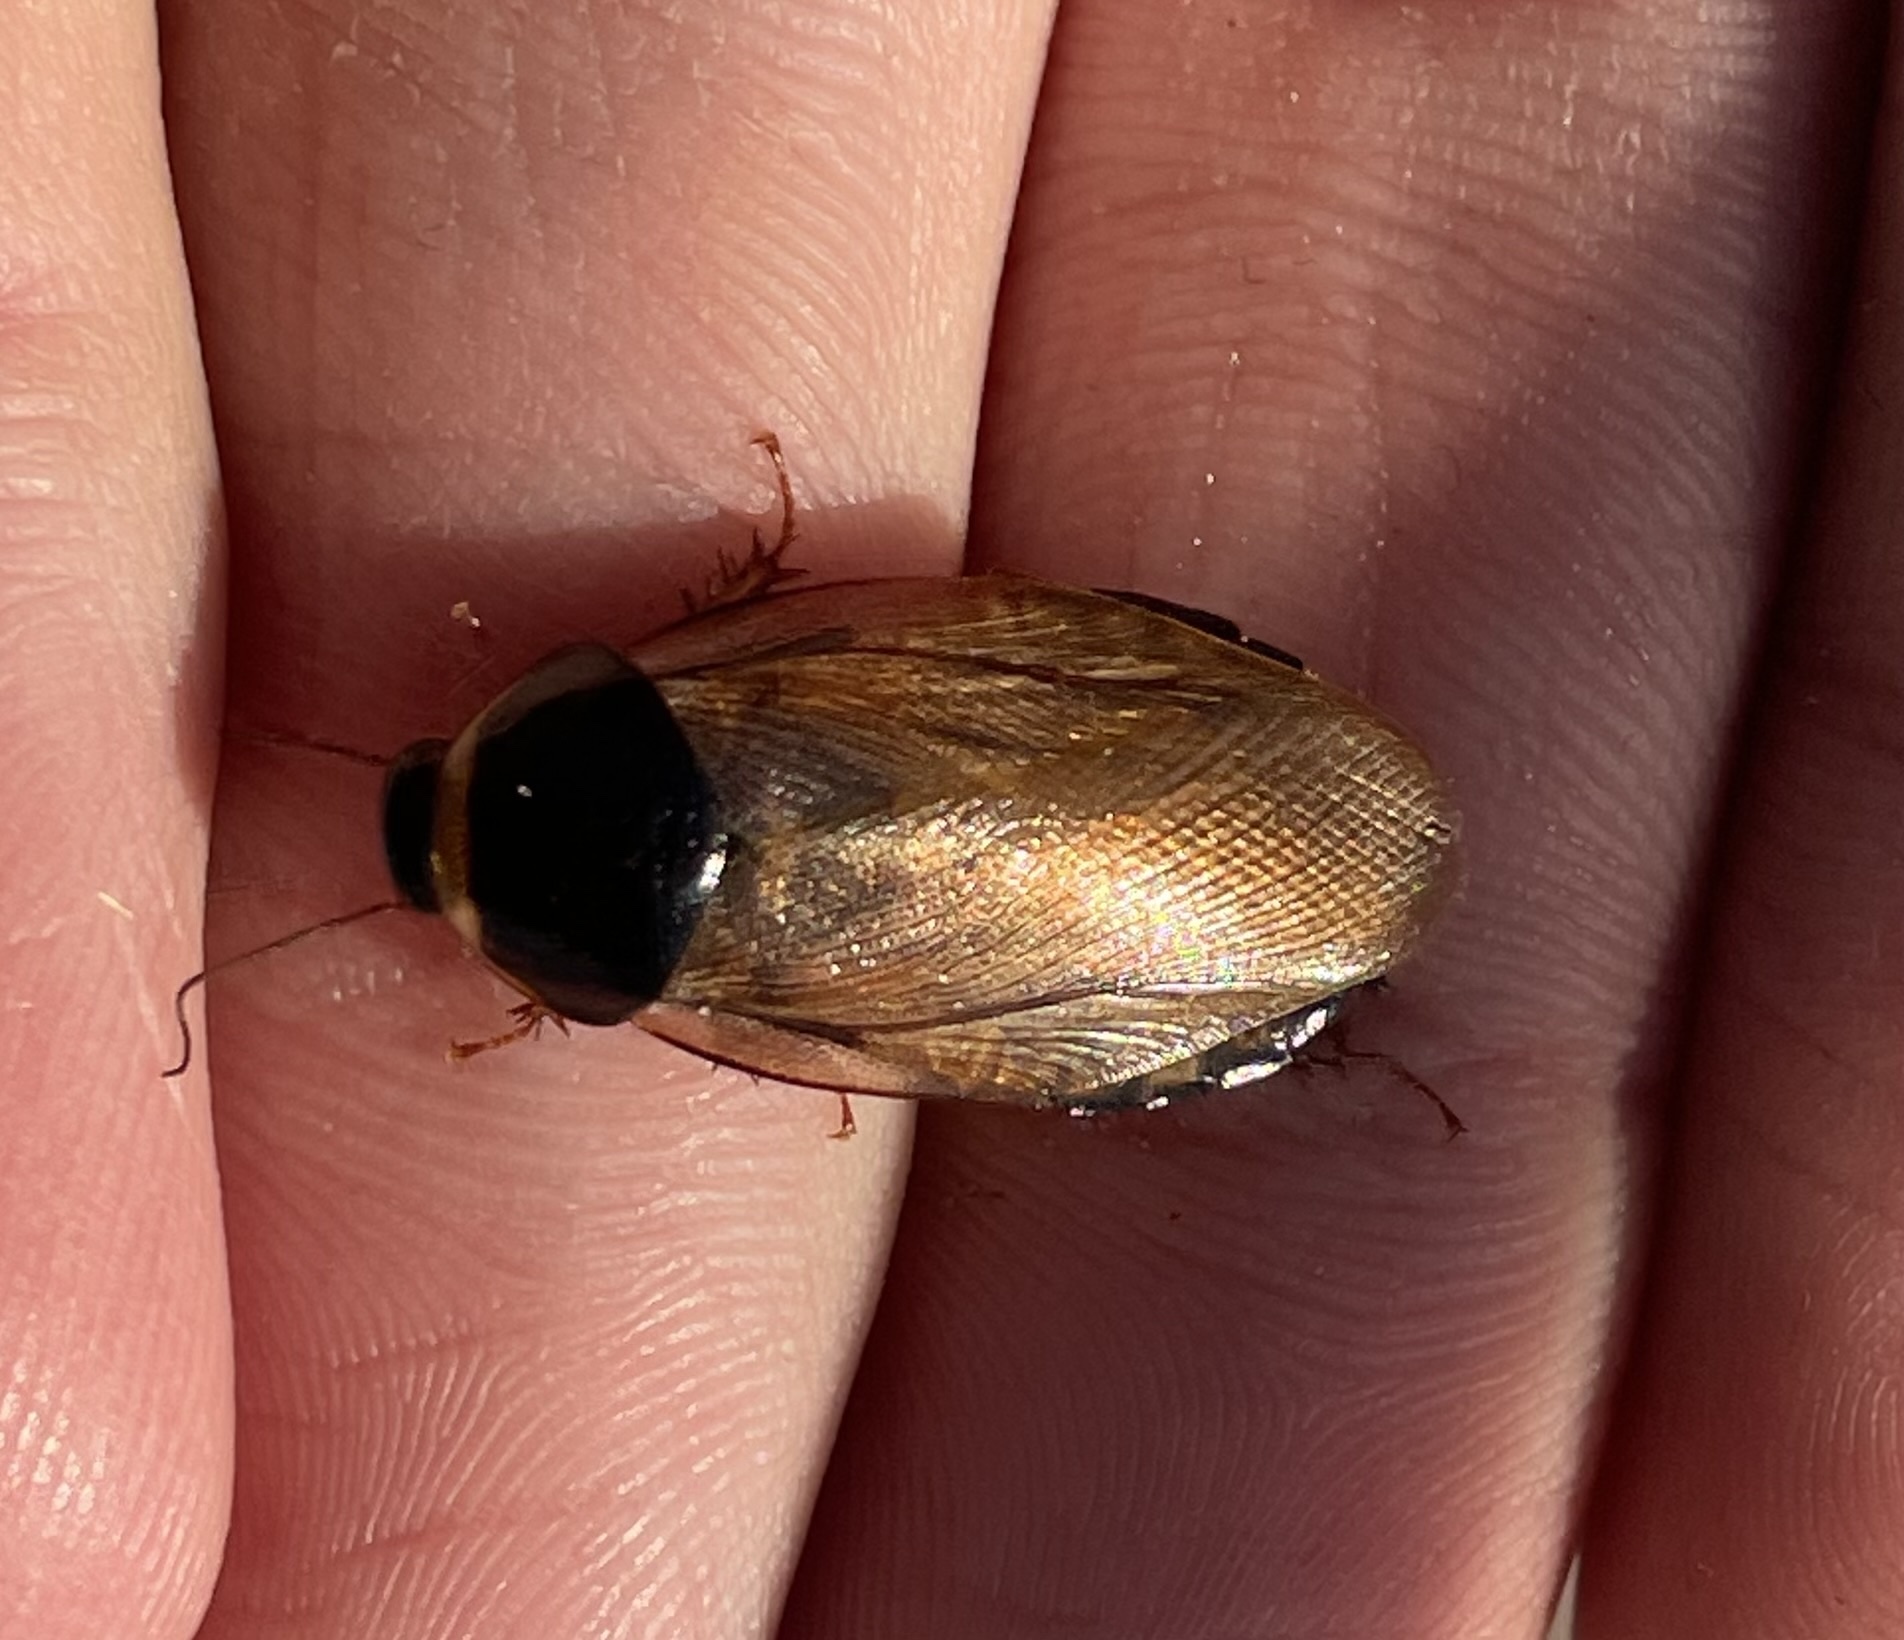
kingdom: Animalia
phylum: Arthropoda
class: Insecta
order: Blattodea
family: Blaberidae
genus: Pycnoscelus
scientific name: Pycnoscelus surinamensis
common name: Surinam cockroach
